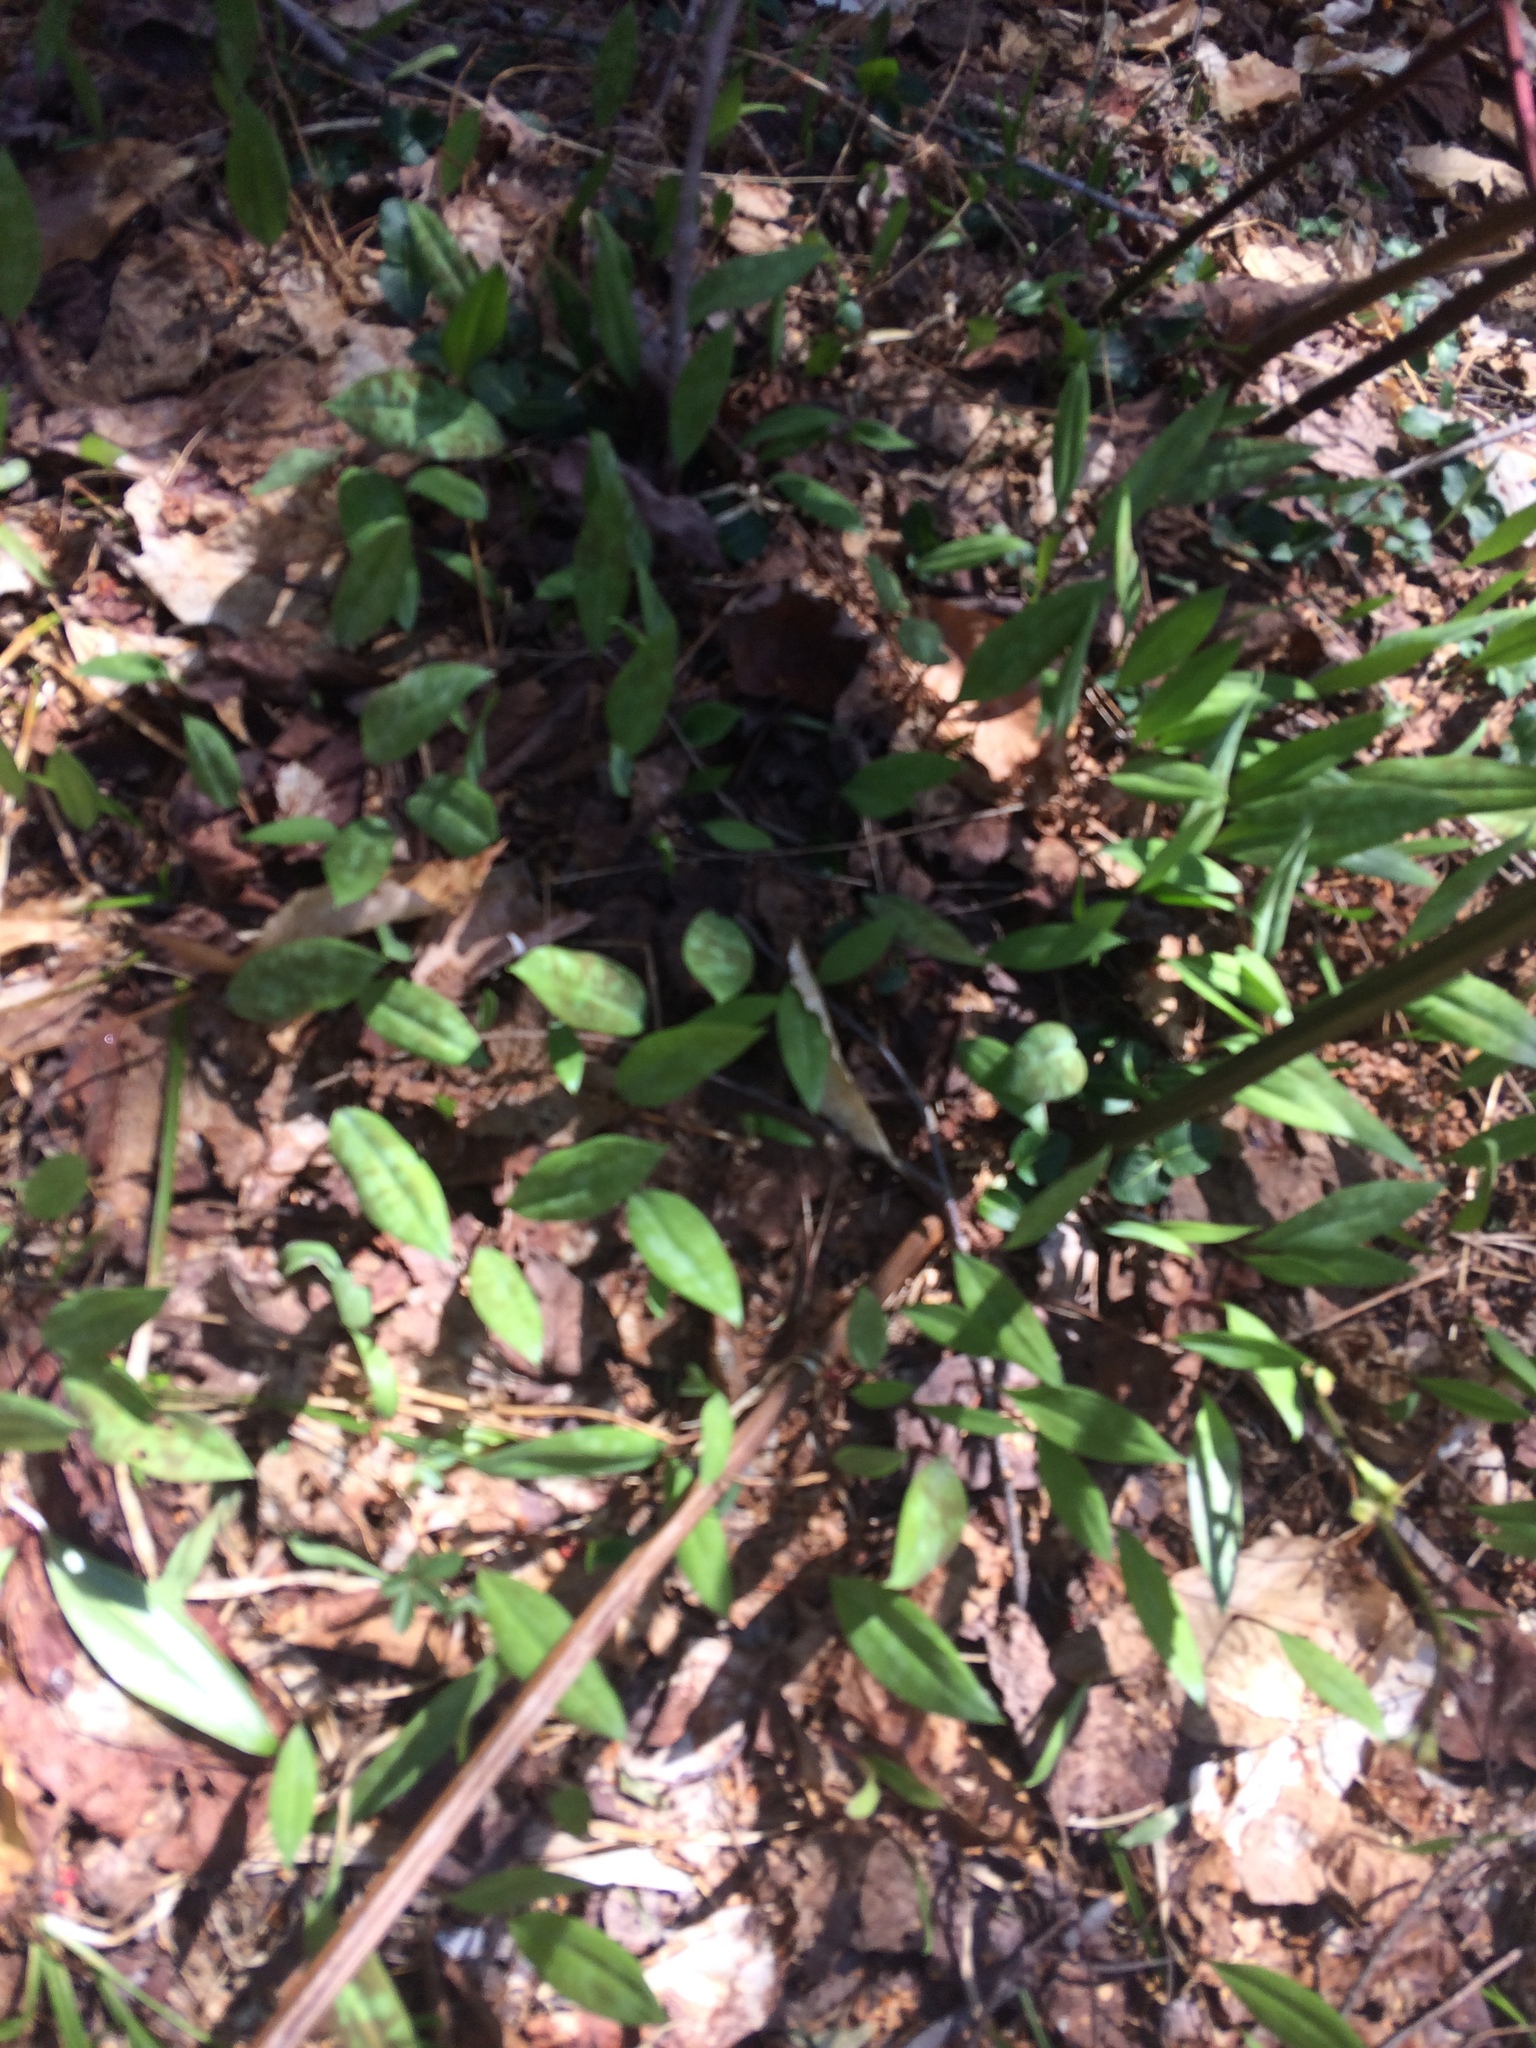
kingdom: Plantae
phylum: Tracheophyta
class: Liliopsida
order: Liliales
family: Liliaceae
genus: Erythronium
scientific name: Erythronium americanum
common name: Yellow adder's-tongue
